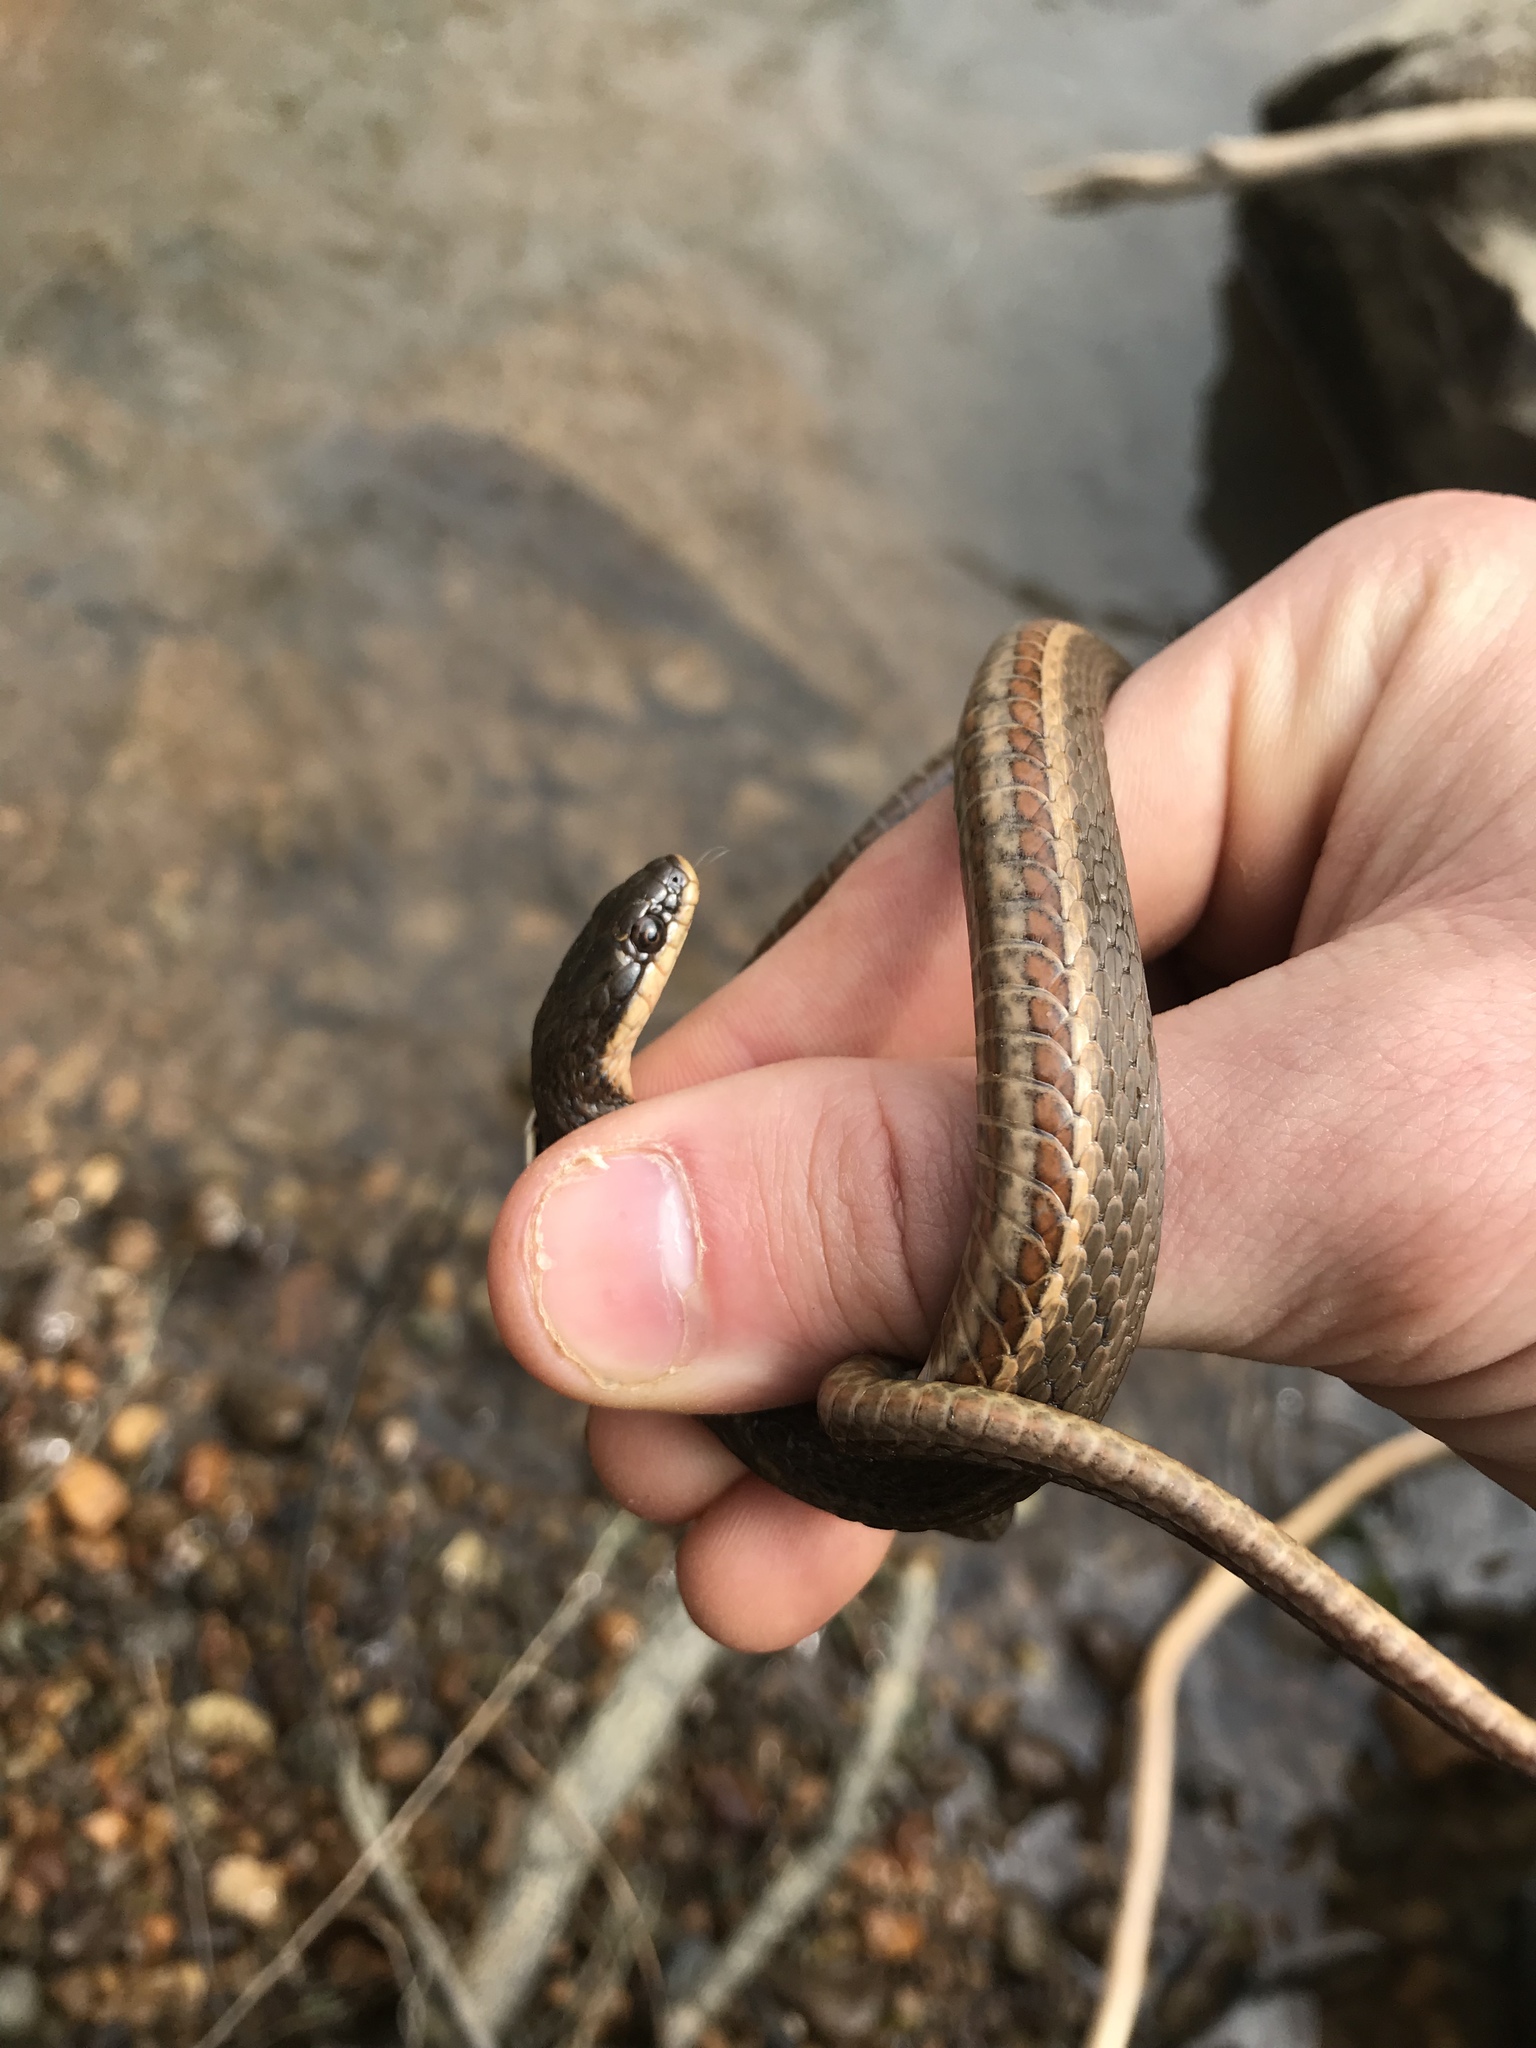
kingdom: Animalia
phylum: Chordata
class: Squamata
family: Colubridae
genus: Regina
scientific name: Regina septemvittata
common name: Queen snake
